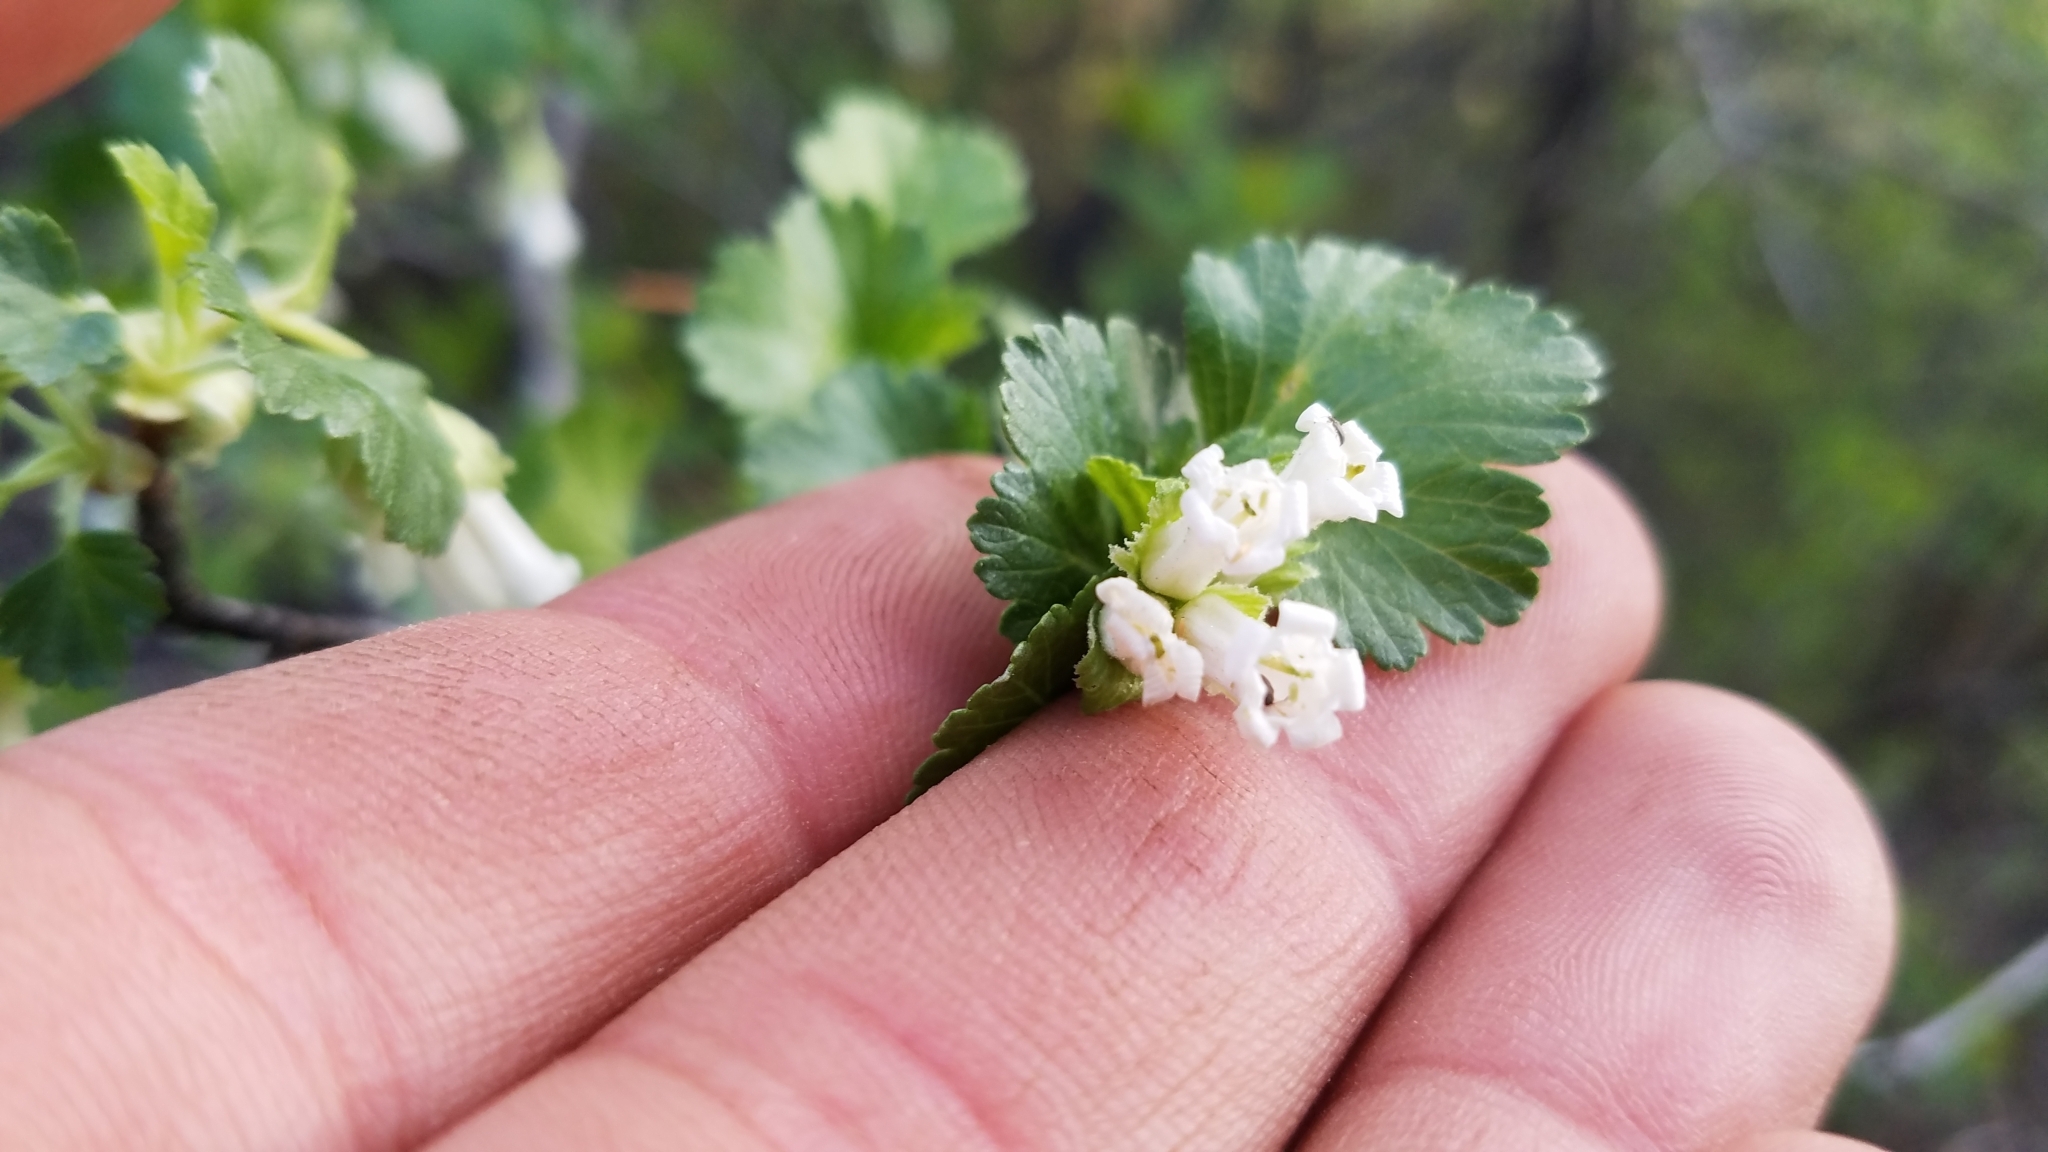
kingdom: Plantae
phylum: Tracheophyta
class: Magnoliopsida
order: Saxifragales
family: Grossulariaceae
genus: Ribes
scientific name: Ribes cereum
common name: Wax currant
